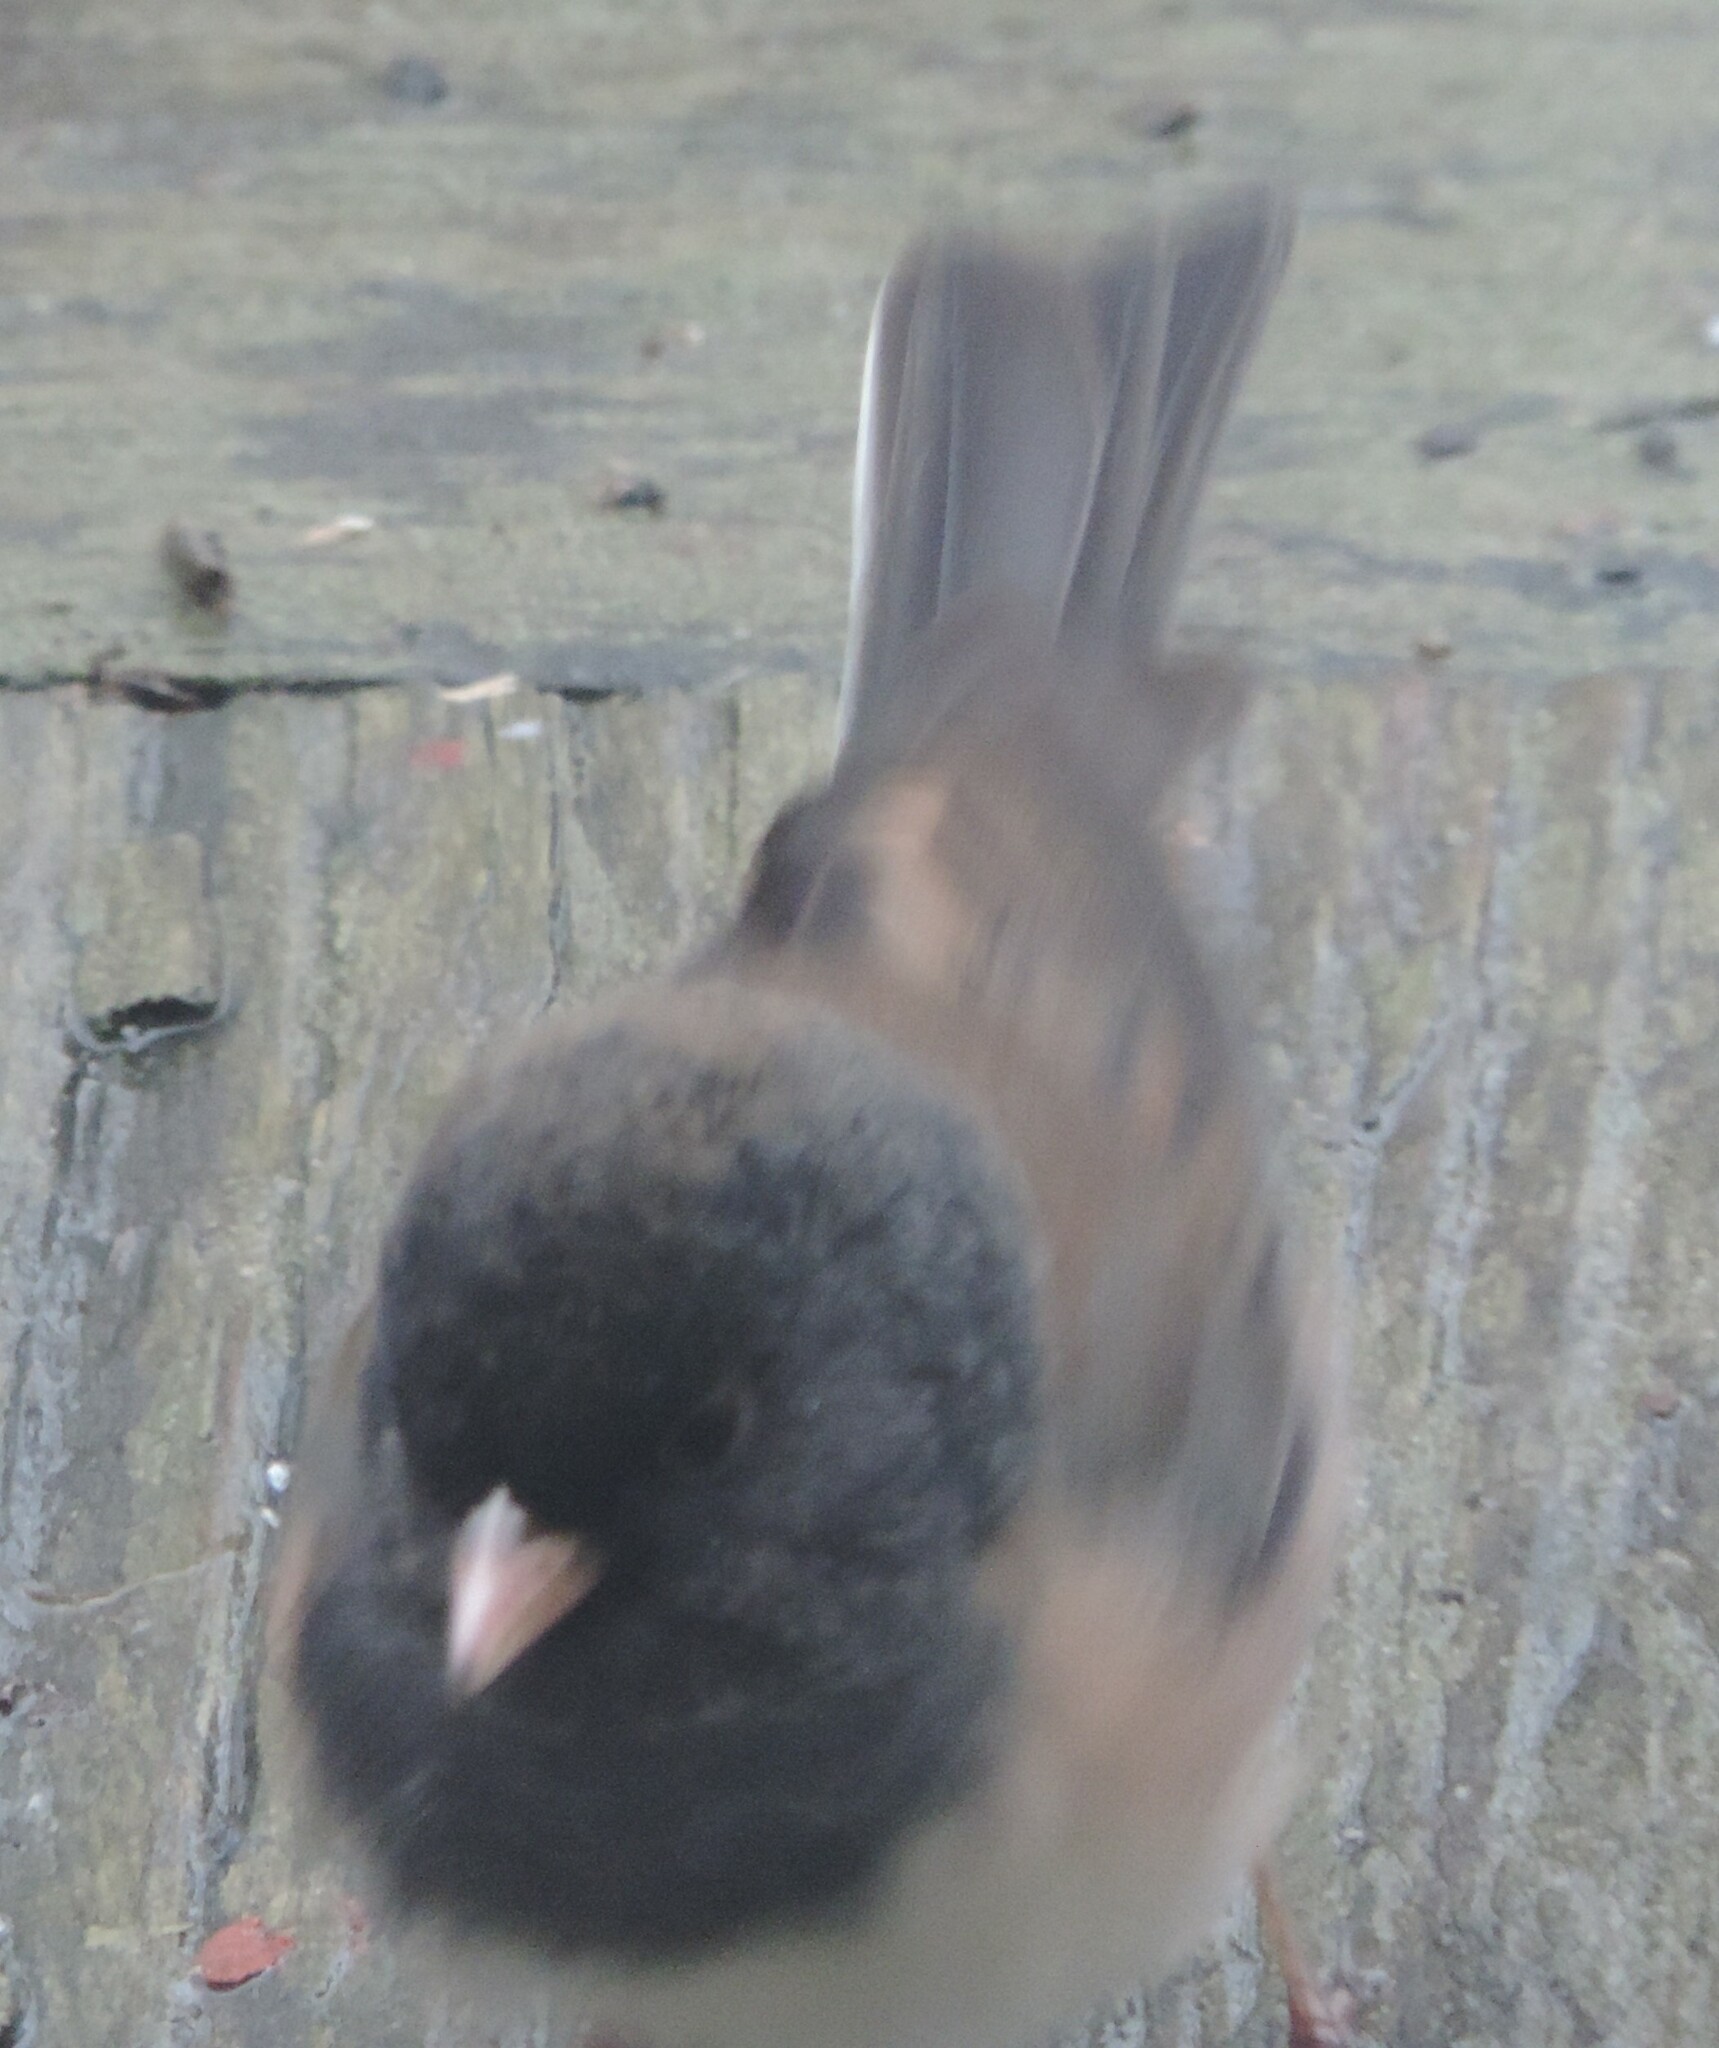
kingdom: Animalia
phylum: Chordata
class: Aves
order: Passeriformes
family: Passerellidae
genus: Junco
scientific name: Junco hyemalis
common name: Dark-eyed junco
